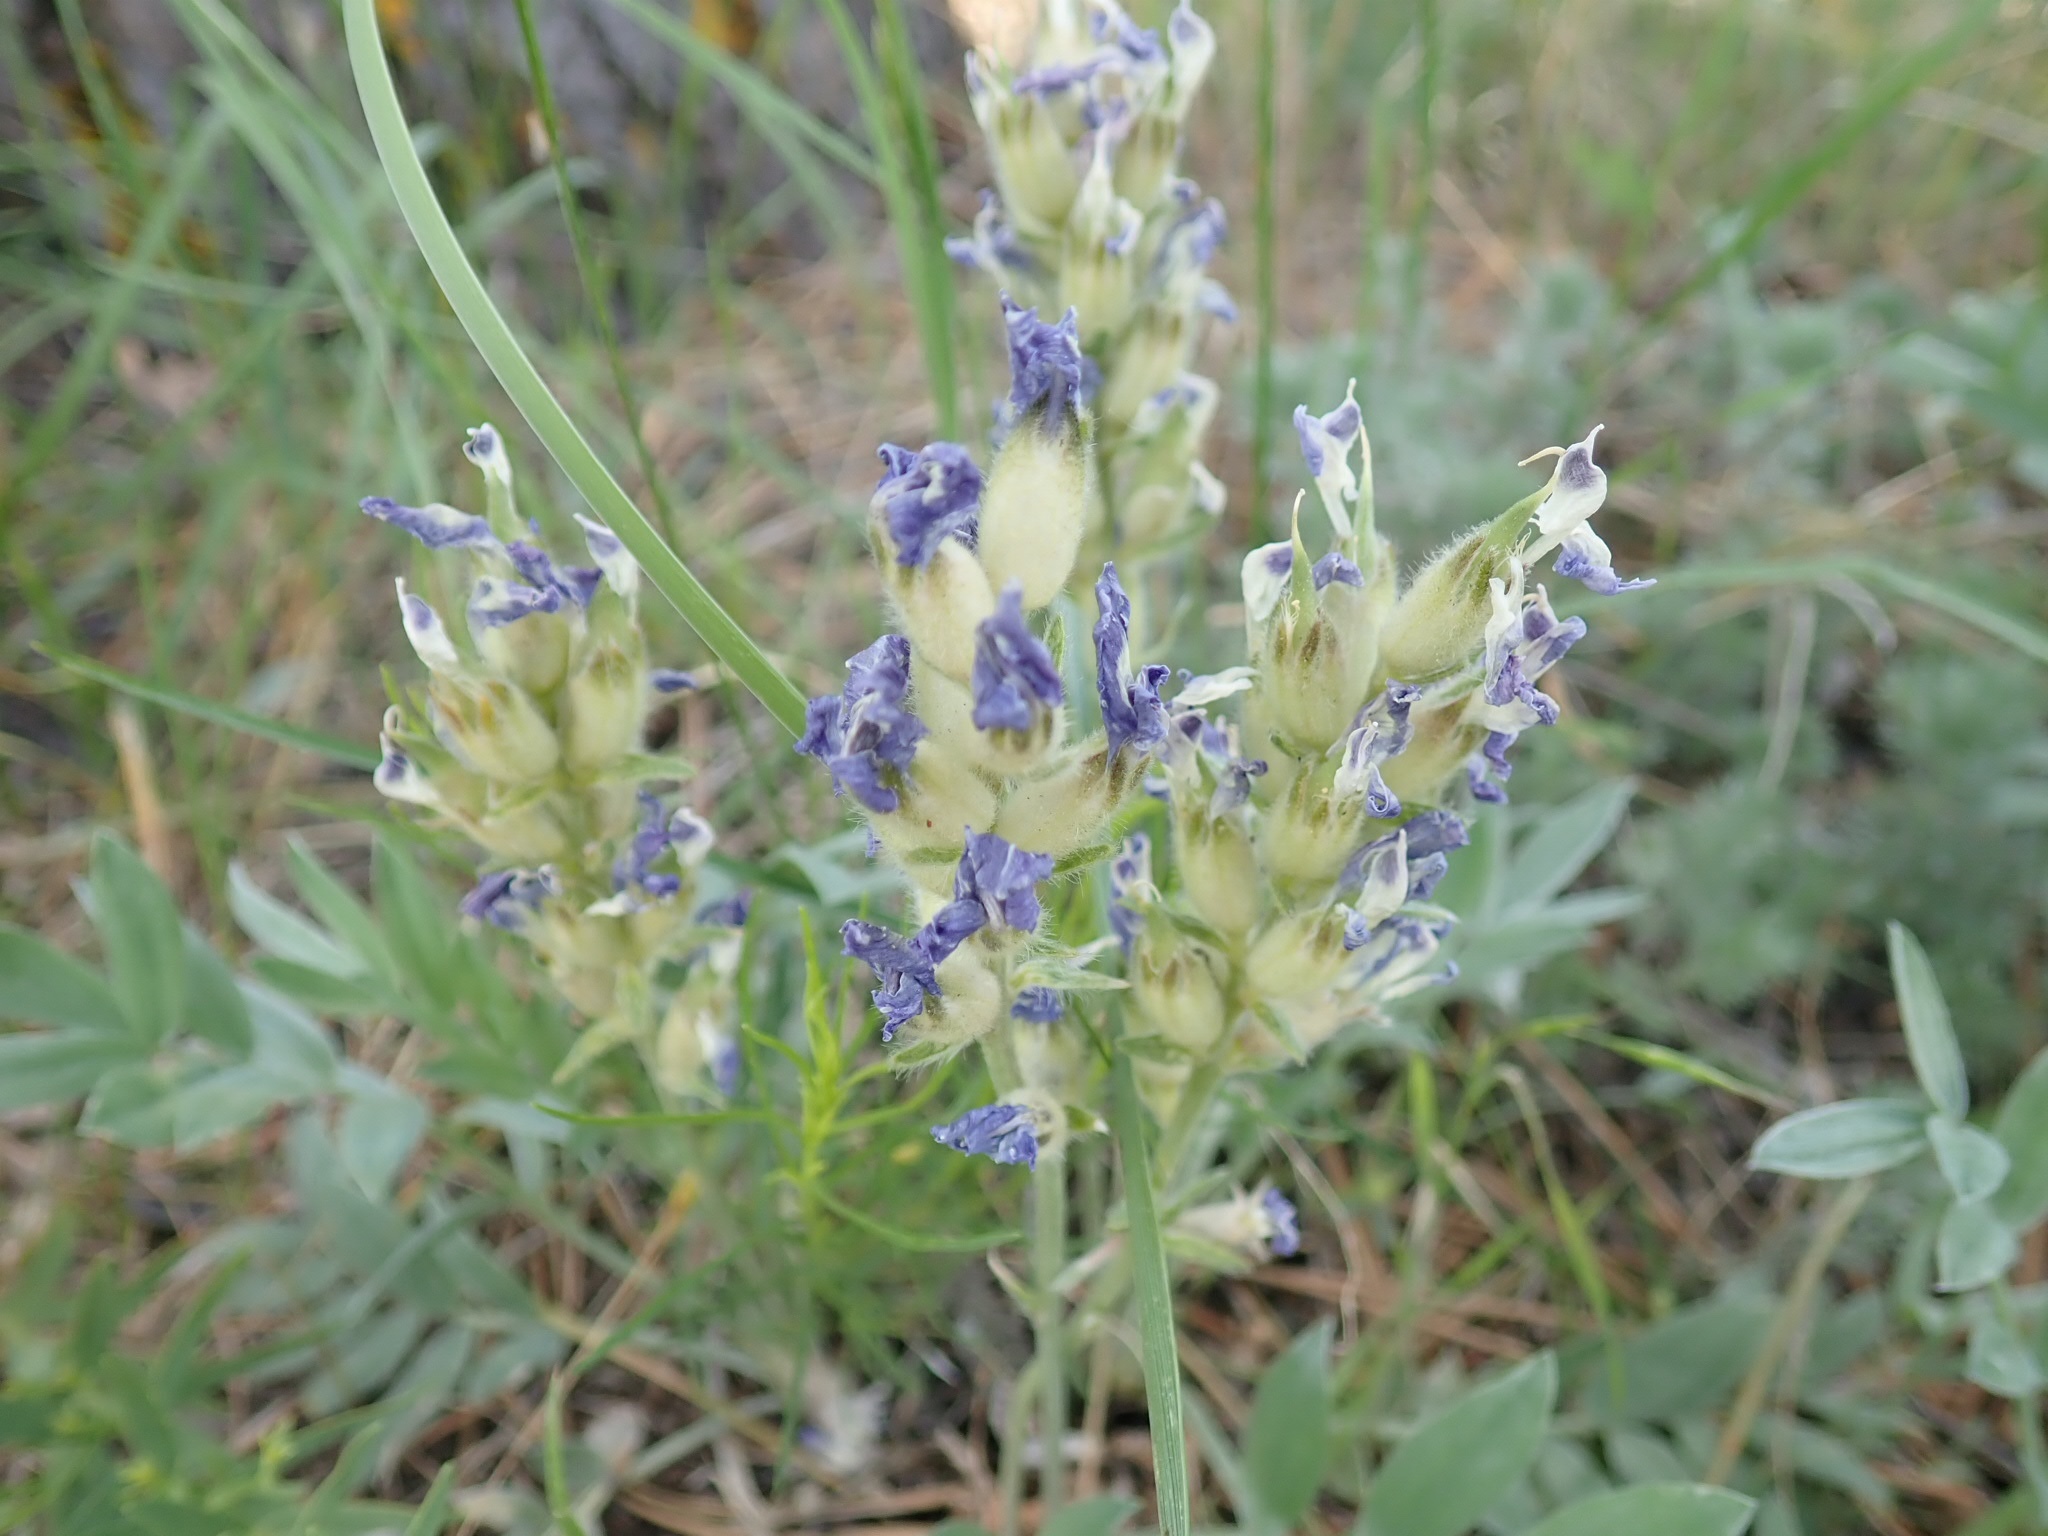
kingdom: Plantae
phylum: Tracheophyta
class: Magnoliopsida
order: Fabales
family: Fabaceae
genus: Oxytropis
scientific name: Oxytropis lambertii
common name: Purple locoweed
